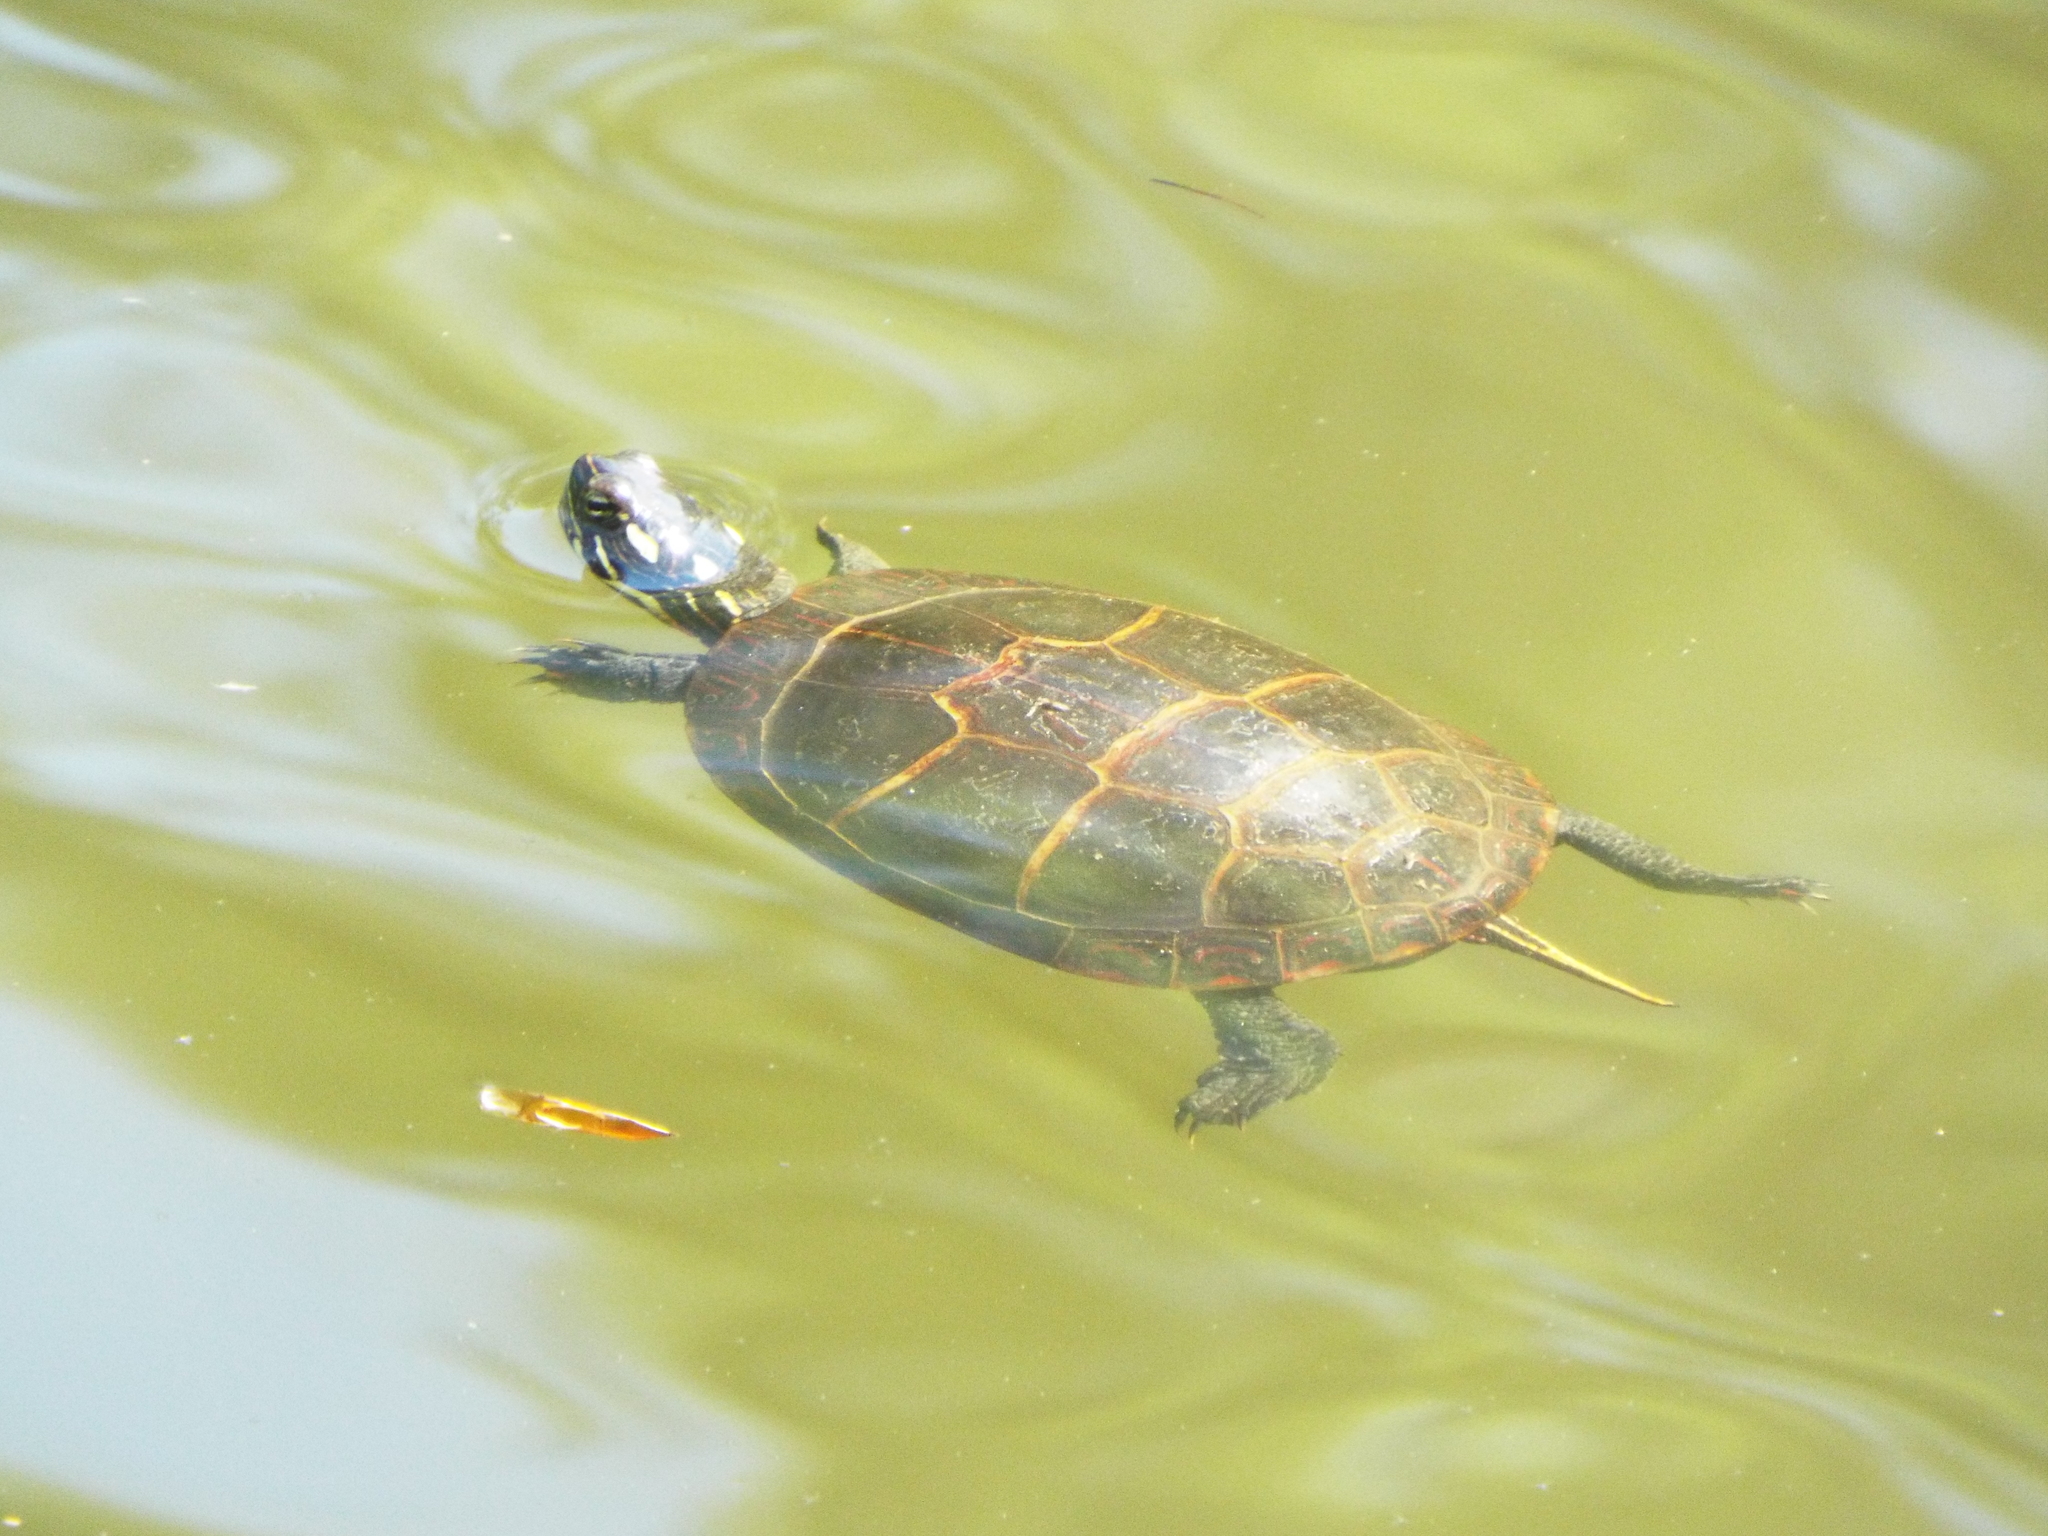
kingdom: Animalia
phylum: Chordata
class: Testudines
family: Emydidae
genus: Chrysemys
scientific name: Chrysemys picta
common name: Painted turtle
